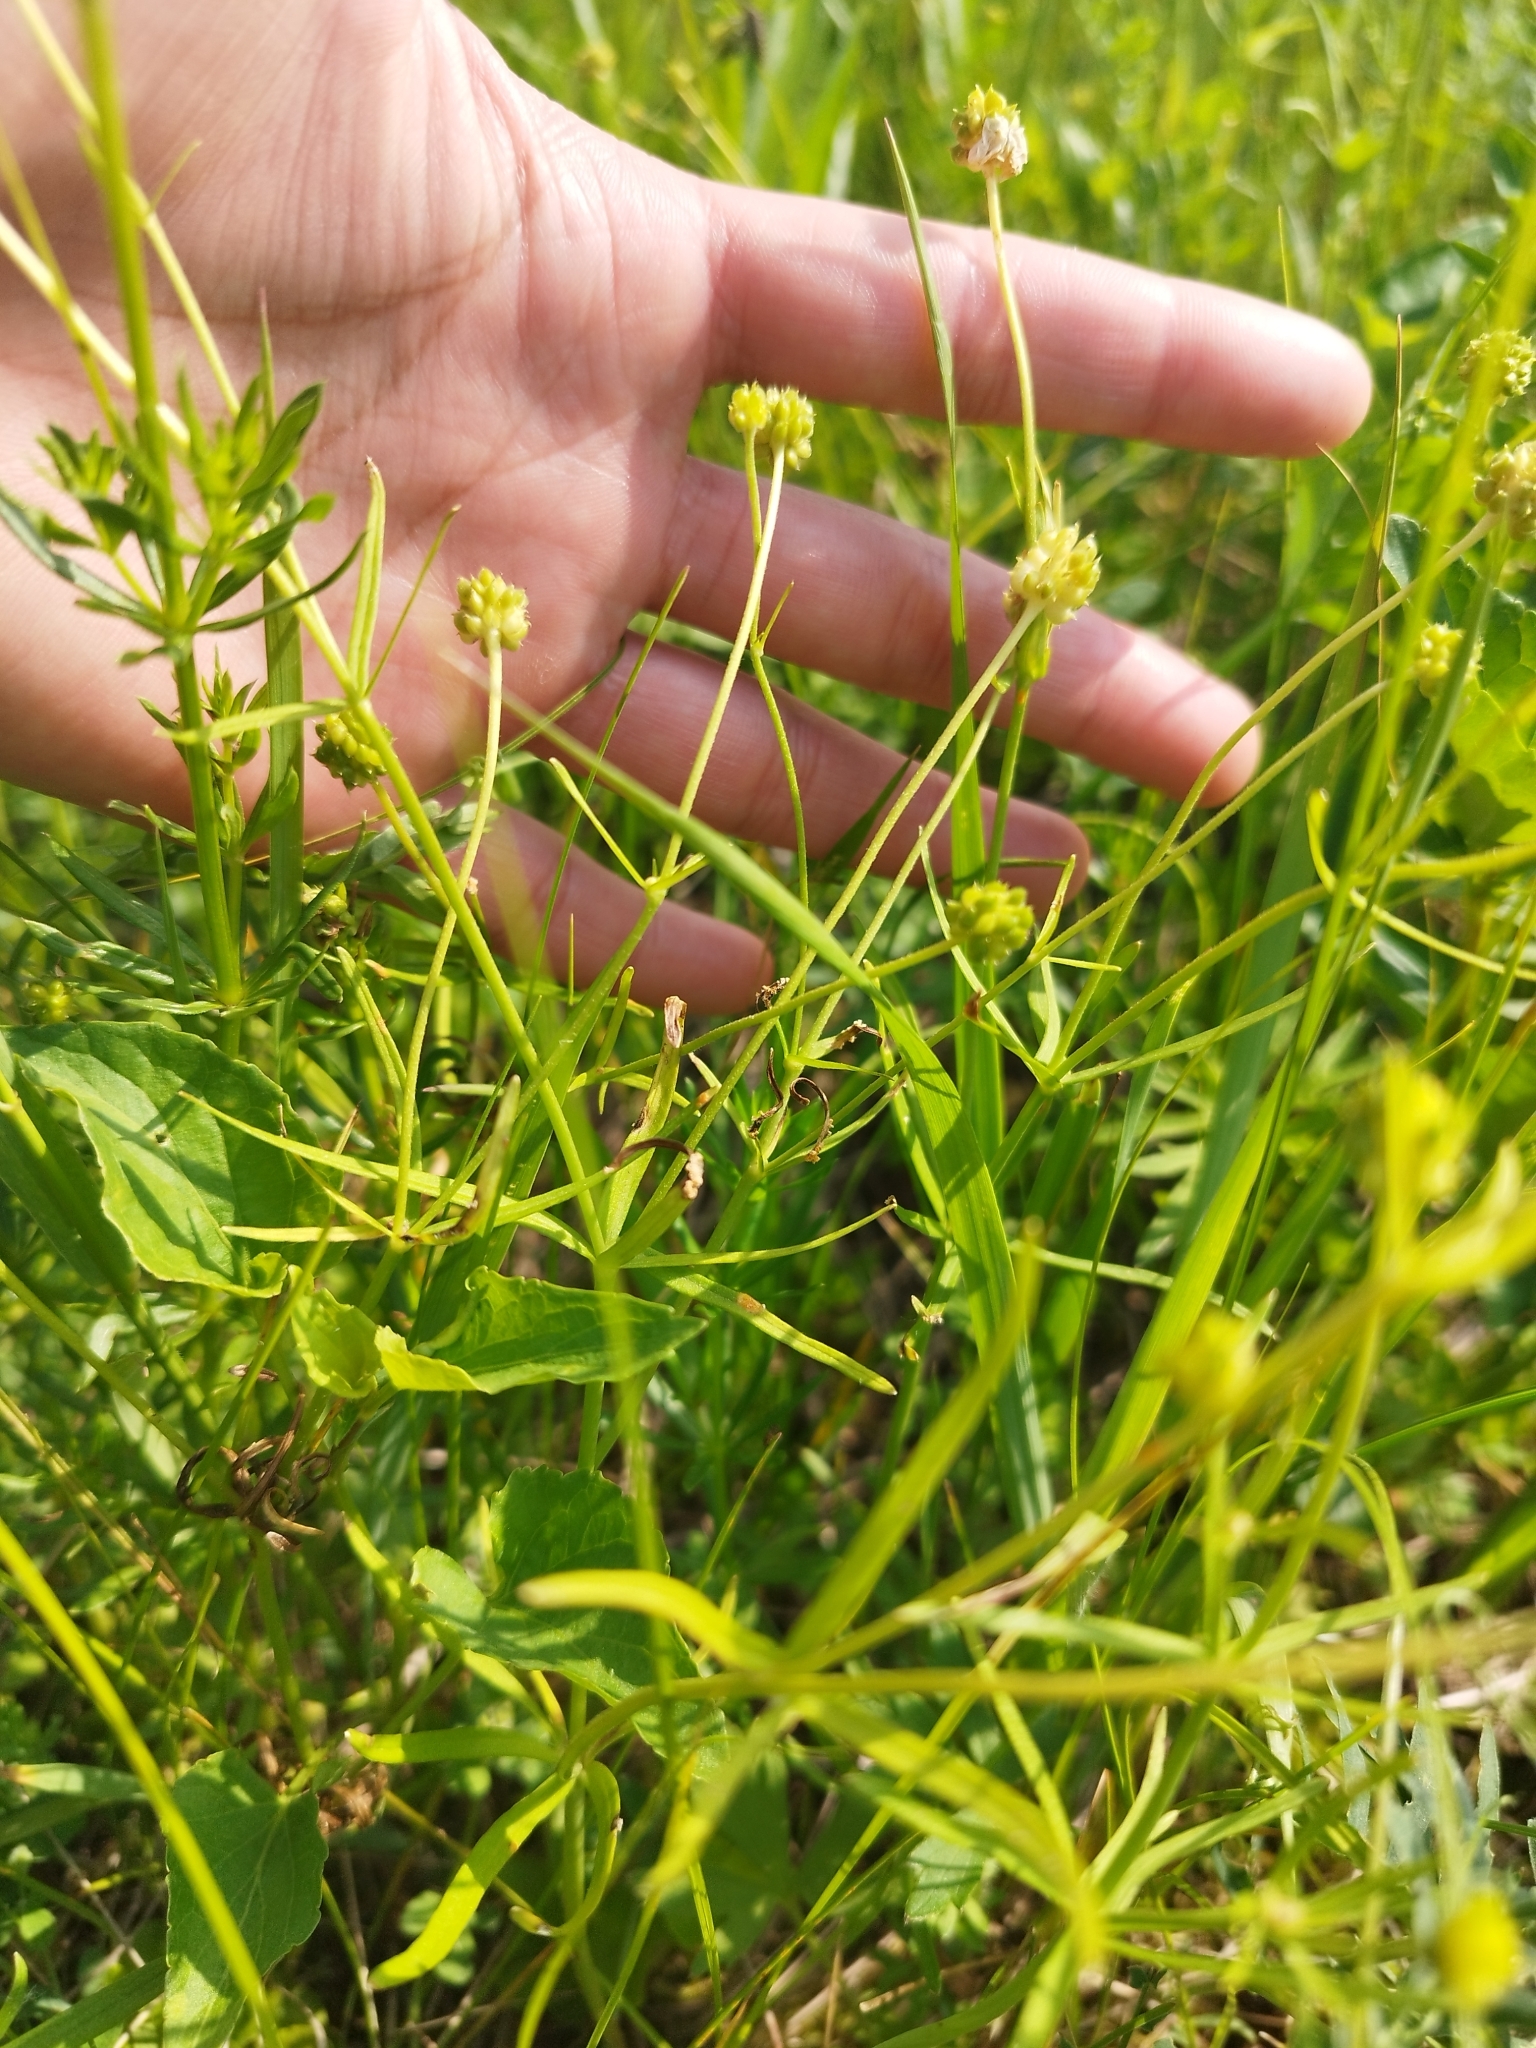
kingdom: Plantae
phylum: Tracheophyta
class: Magnoliopsida
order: Ranunculales
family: Ranunculaceae
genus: Ranunculus
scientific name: Ranunculus auricomus
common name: Goldilocks buttercup
